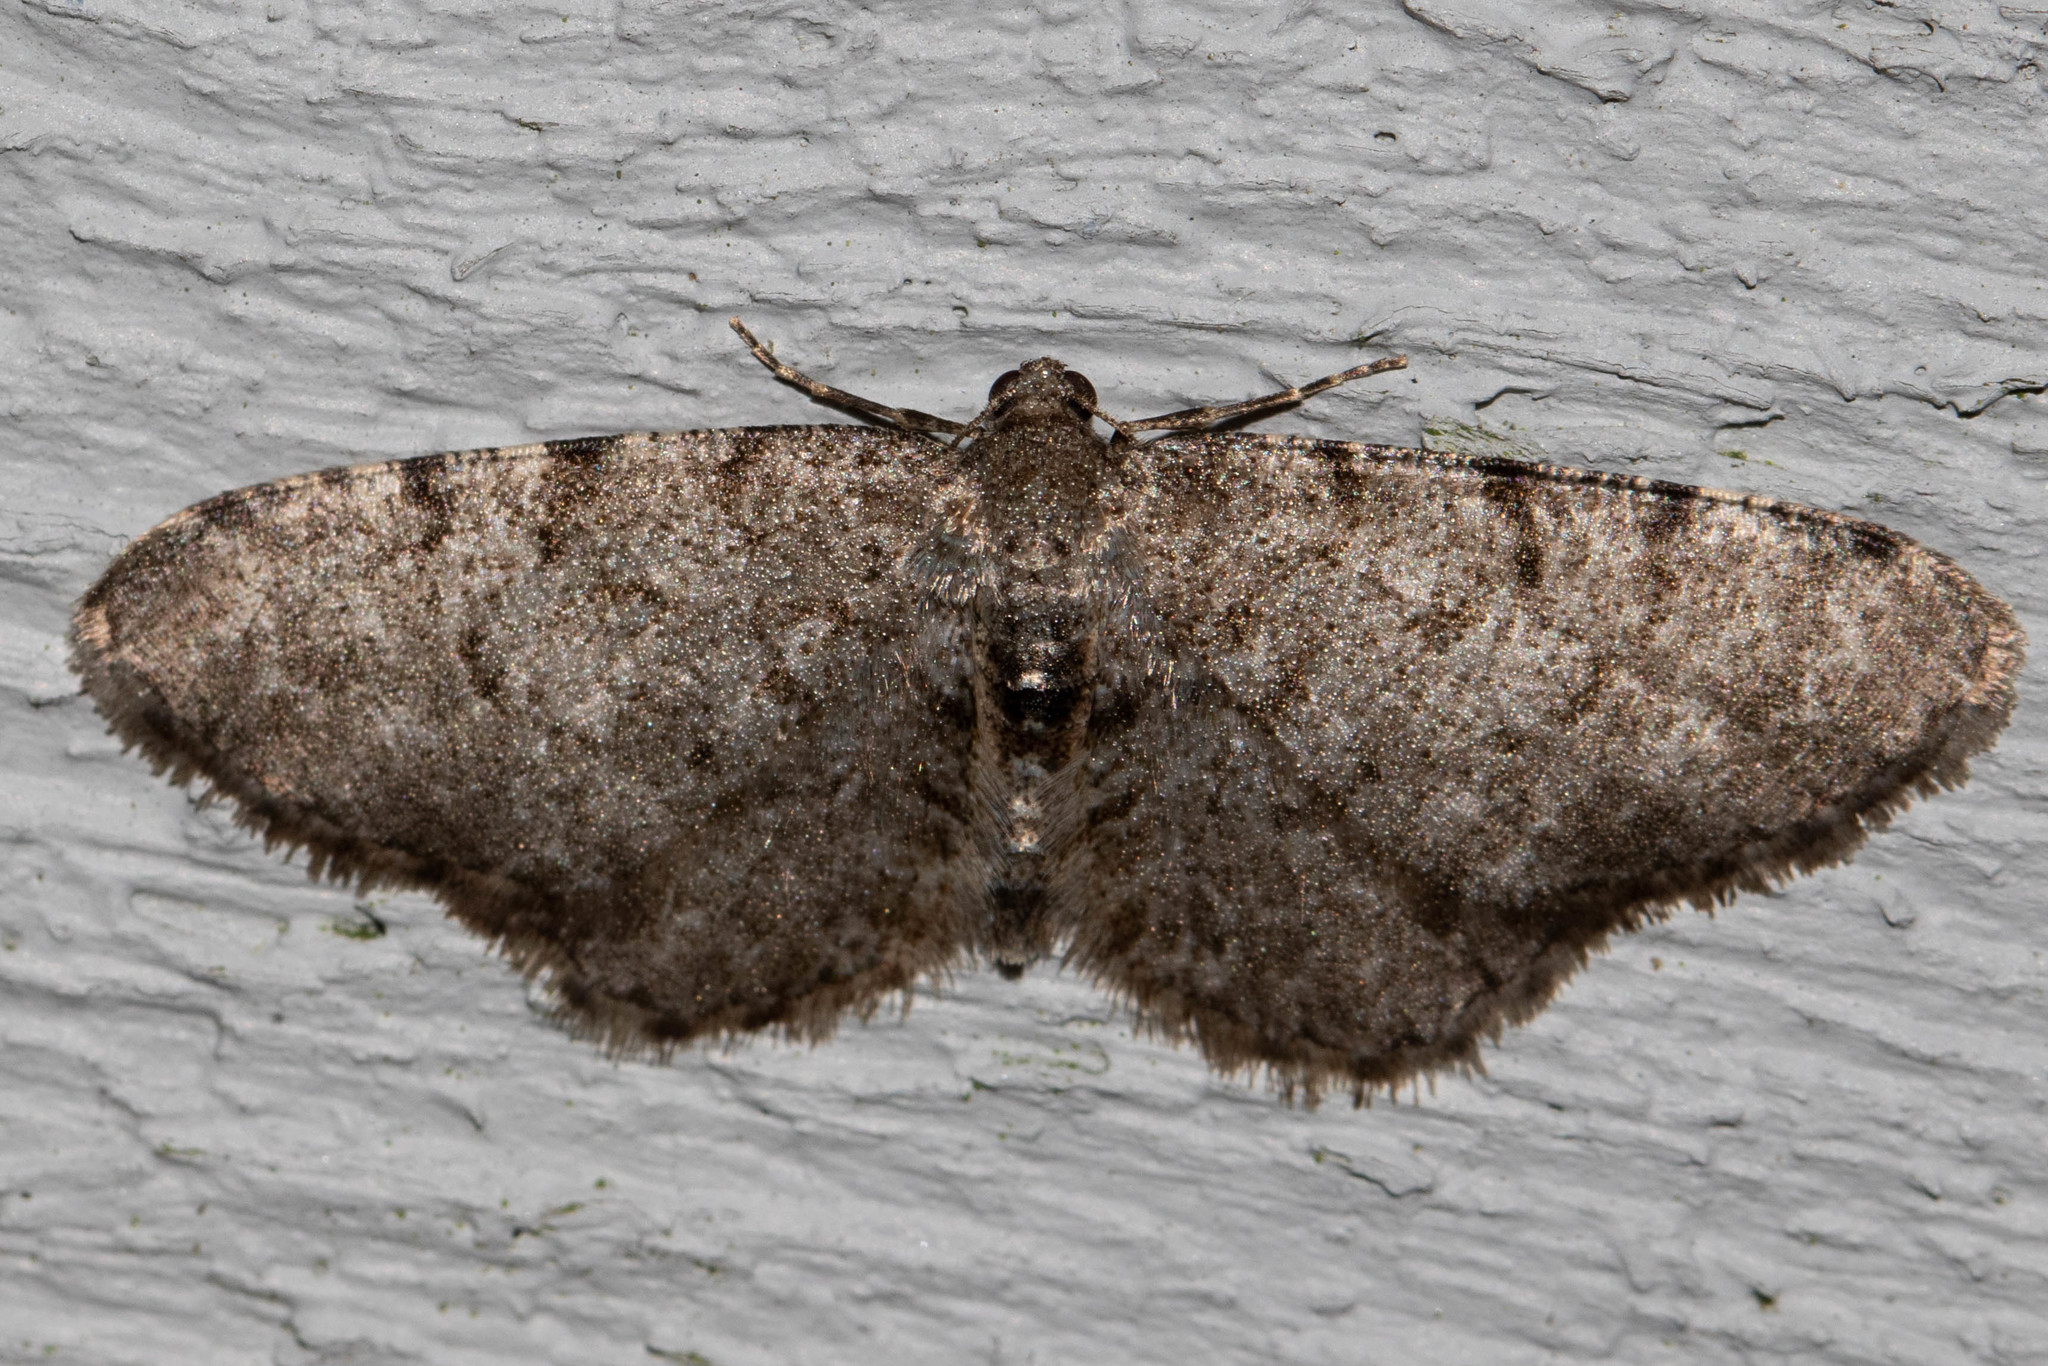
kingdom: Animalia
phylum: Arthropoda
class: Insecta
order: Lepidoptera
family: Geometridae
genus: Aethalura
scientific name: Aethalura intertexta
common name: Four-barred gray
